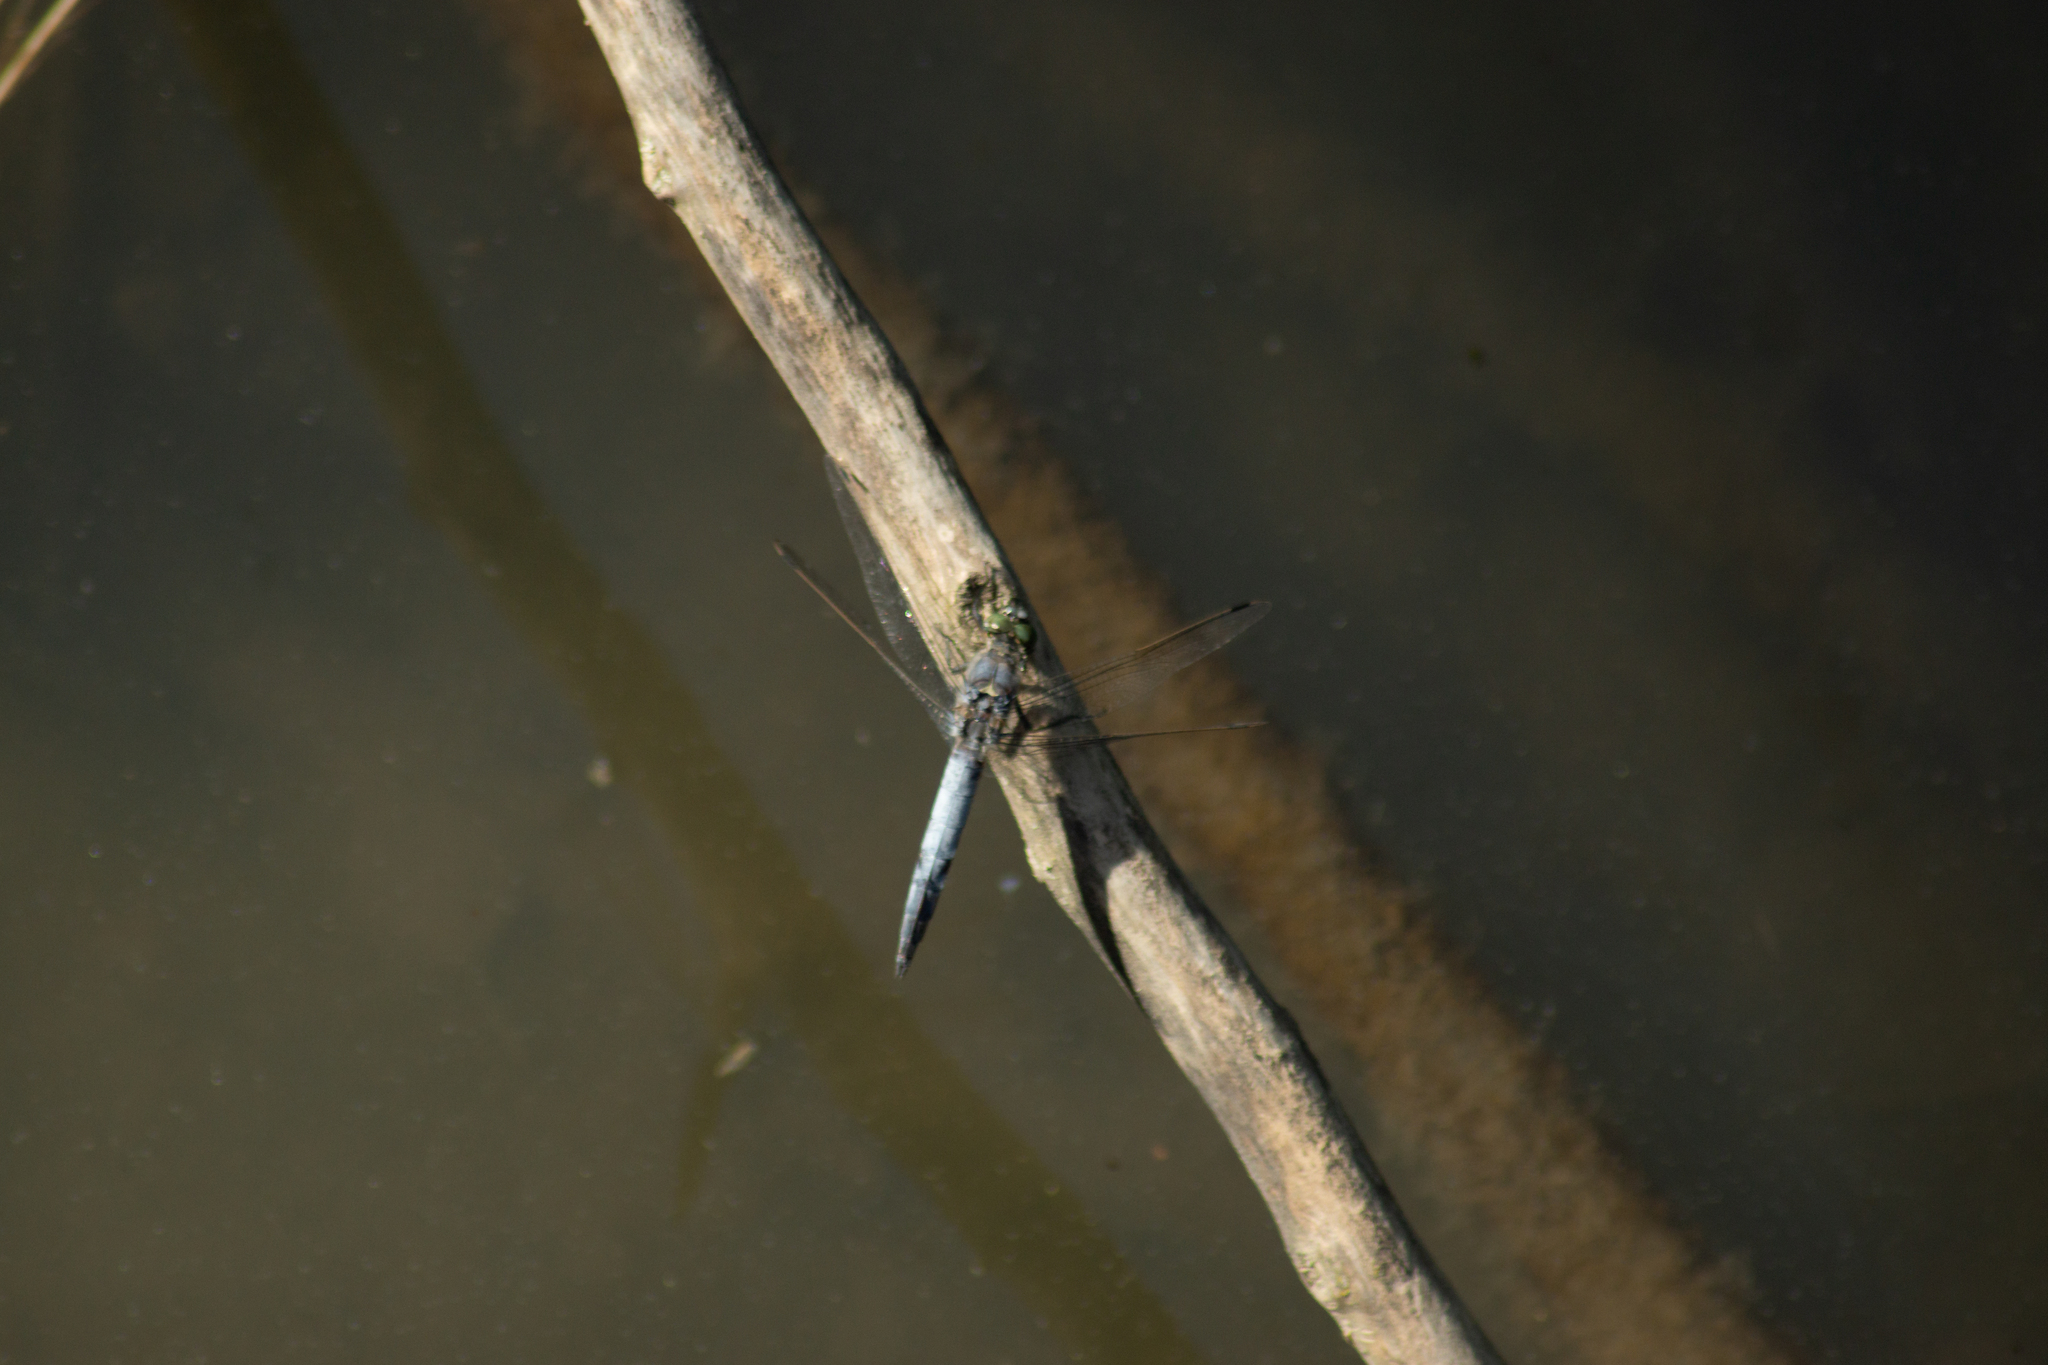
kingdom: Animalia
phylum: Arthropoda
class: Insecta
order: Odonata
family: Libellulidae
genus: Orthetrum
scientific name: Orthetrum cancellatum
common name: Black-tailed skimmer
